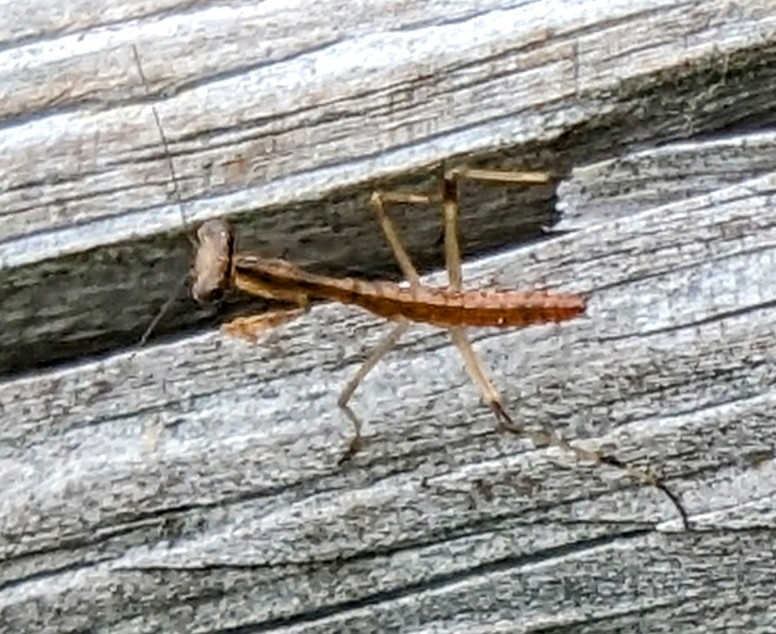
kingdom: Animalia
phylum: Arthropoda
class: Insecta
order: Mantodea
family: Mantidae
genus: Stagmomantis
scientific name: Stagmomantis carolina
